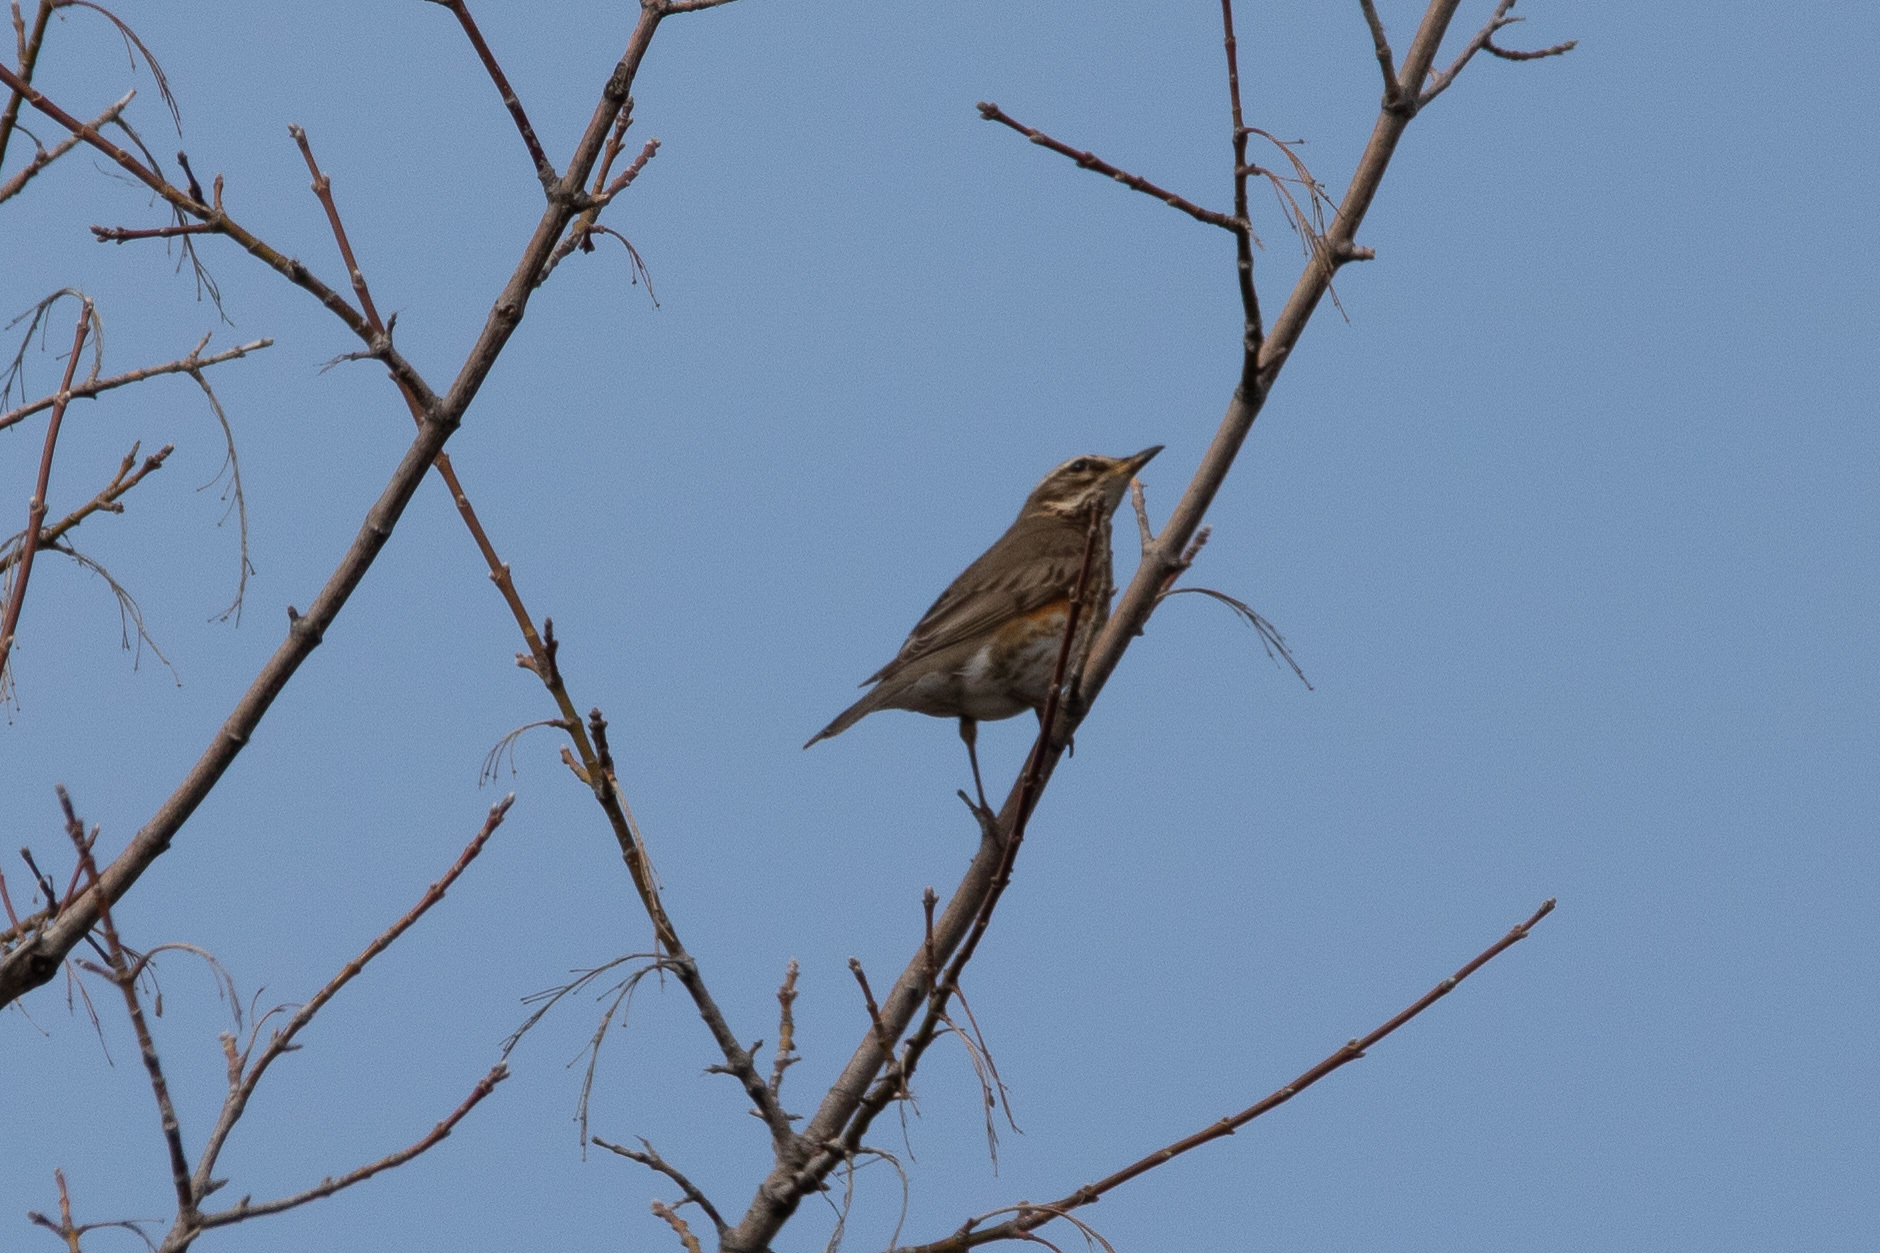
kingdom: Animalia
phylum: Chordata
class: Aves
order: Passeriformes
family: Turdidae
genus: Turdus
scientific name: Turdus iliacus
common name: Redwing
